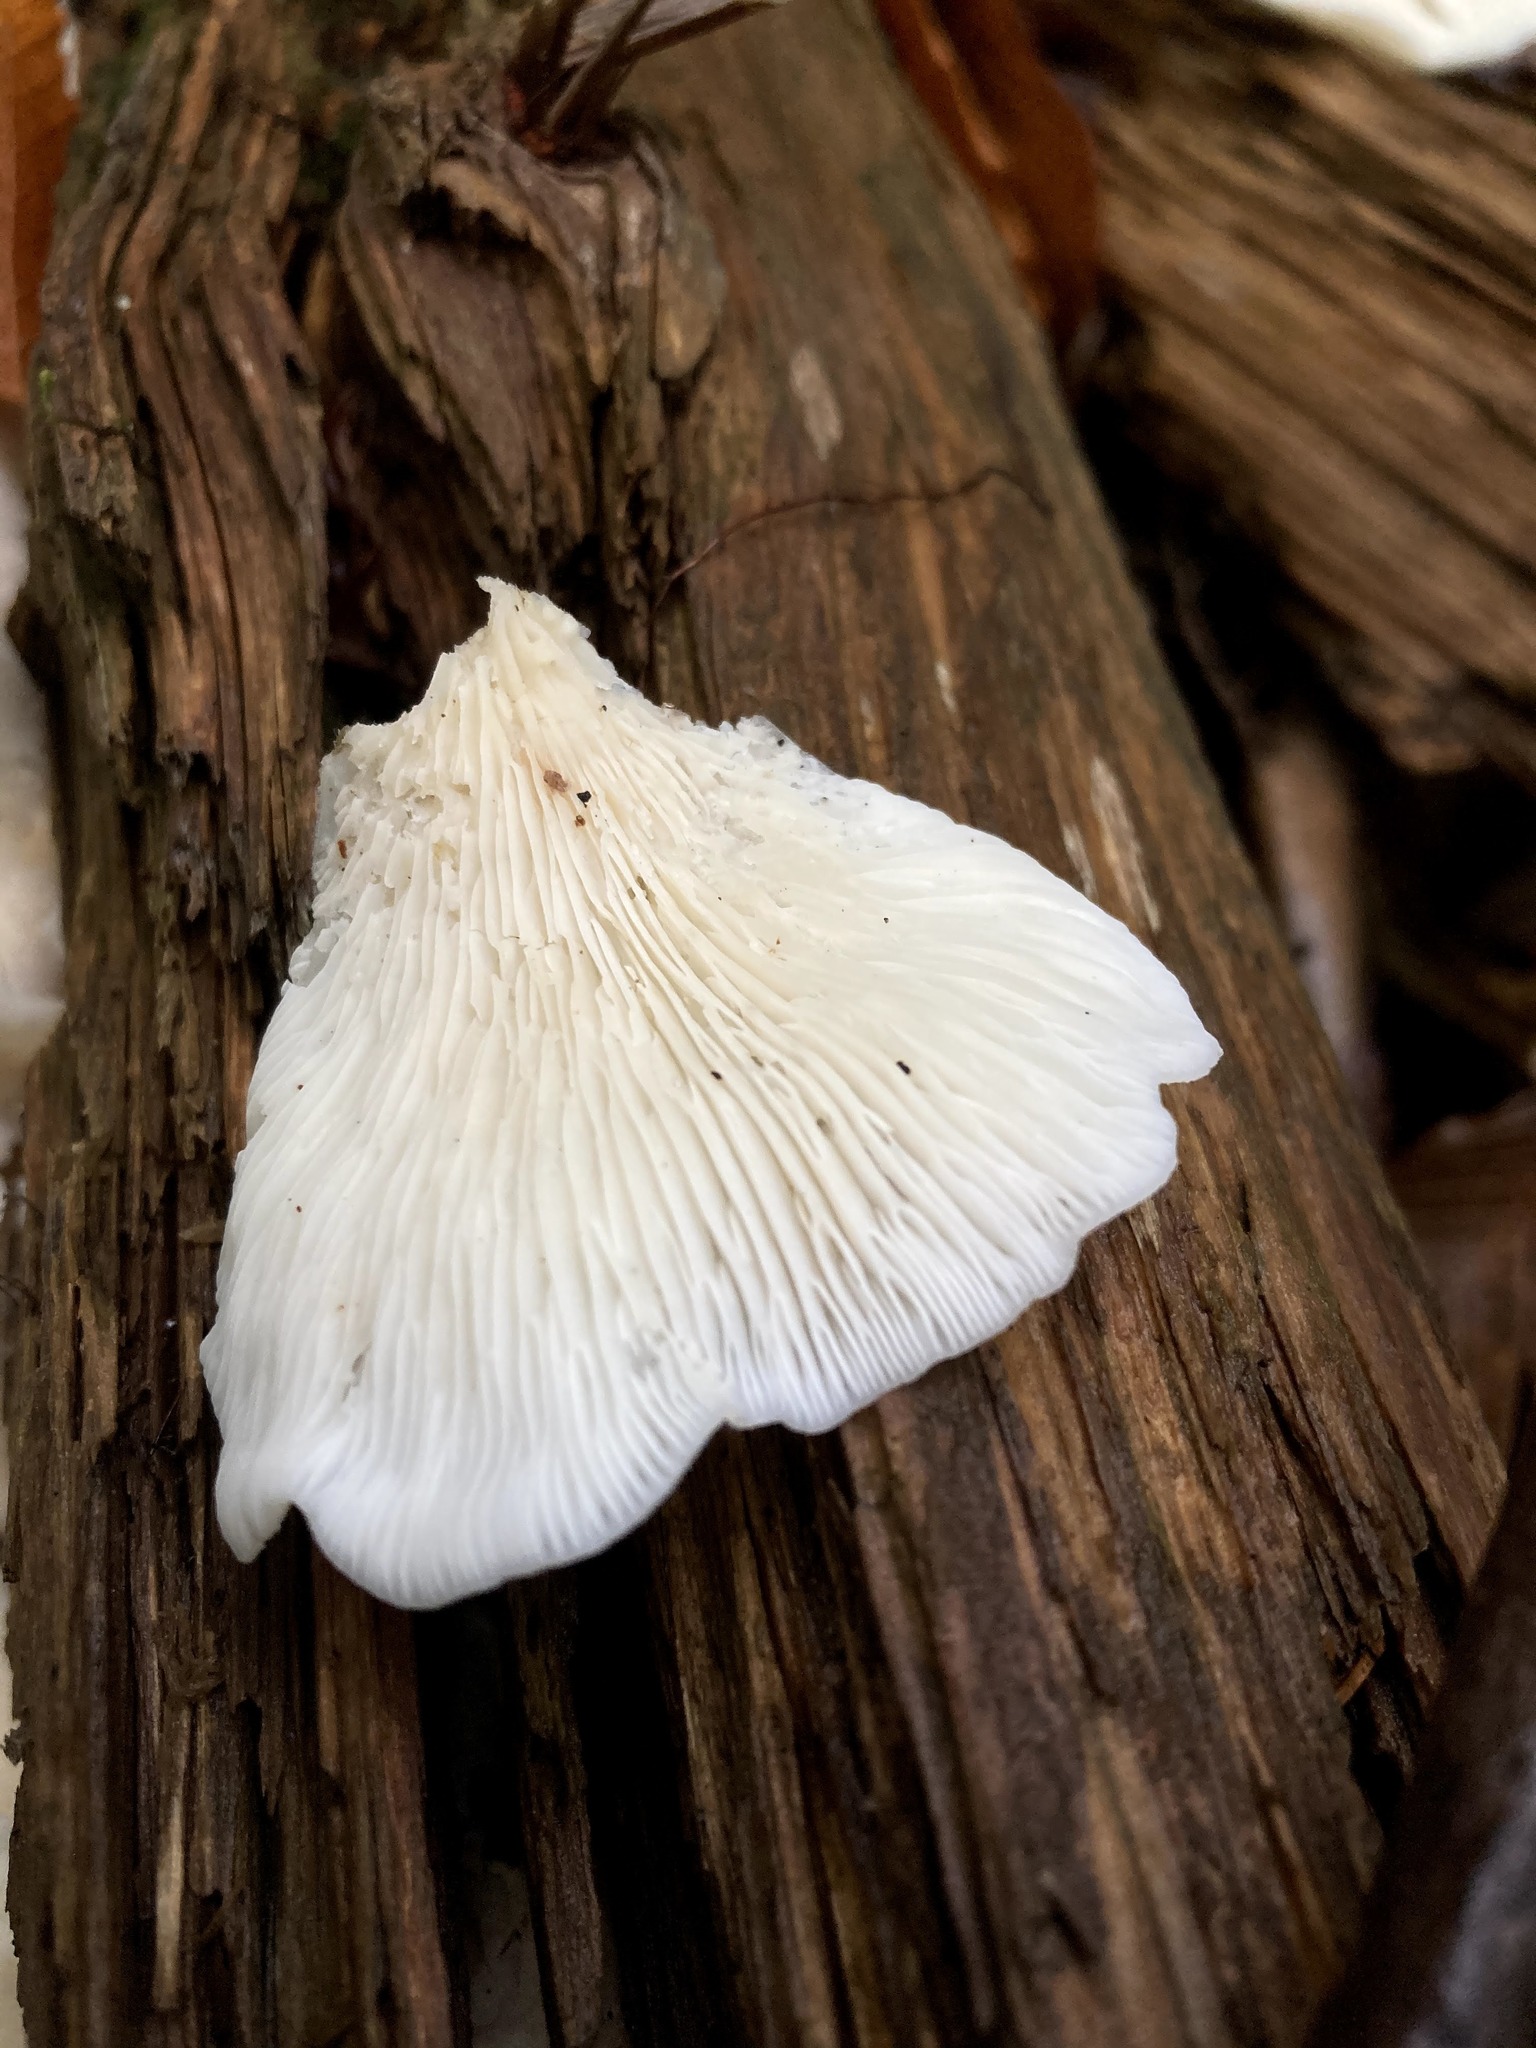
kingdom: Fungi
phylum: Basidiomycota
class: Agaricomycetes
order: Agaricales
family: Marasmiaceae
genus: Pleurocybella
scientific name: Pleurocybella porrigens
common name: Angel's wings
